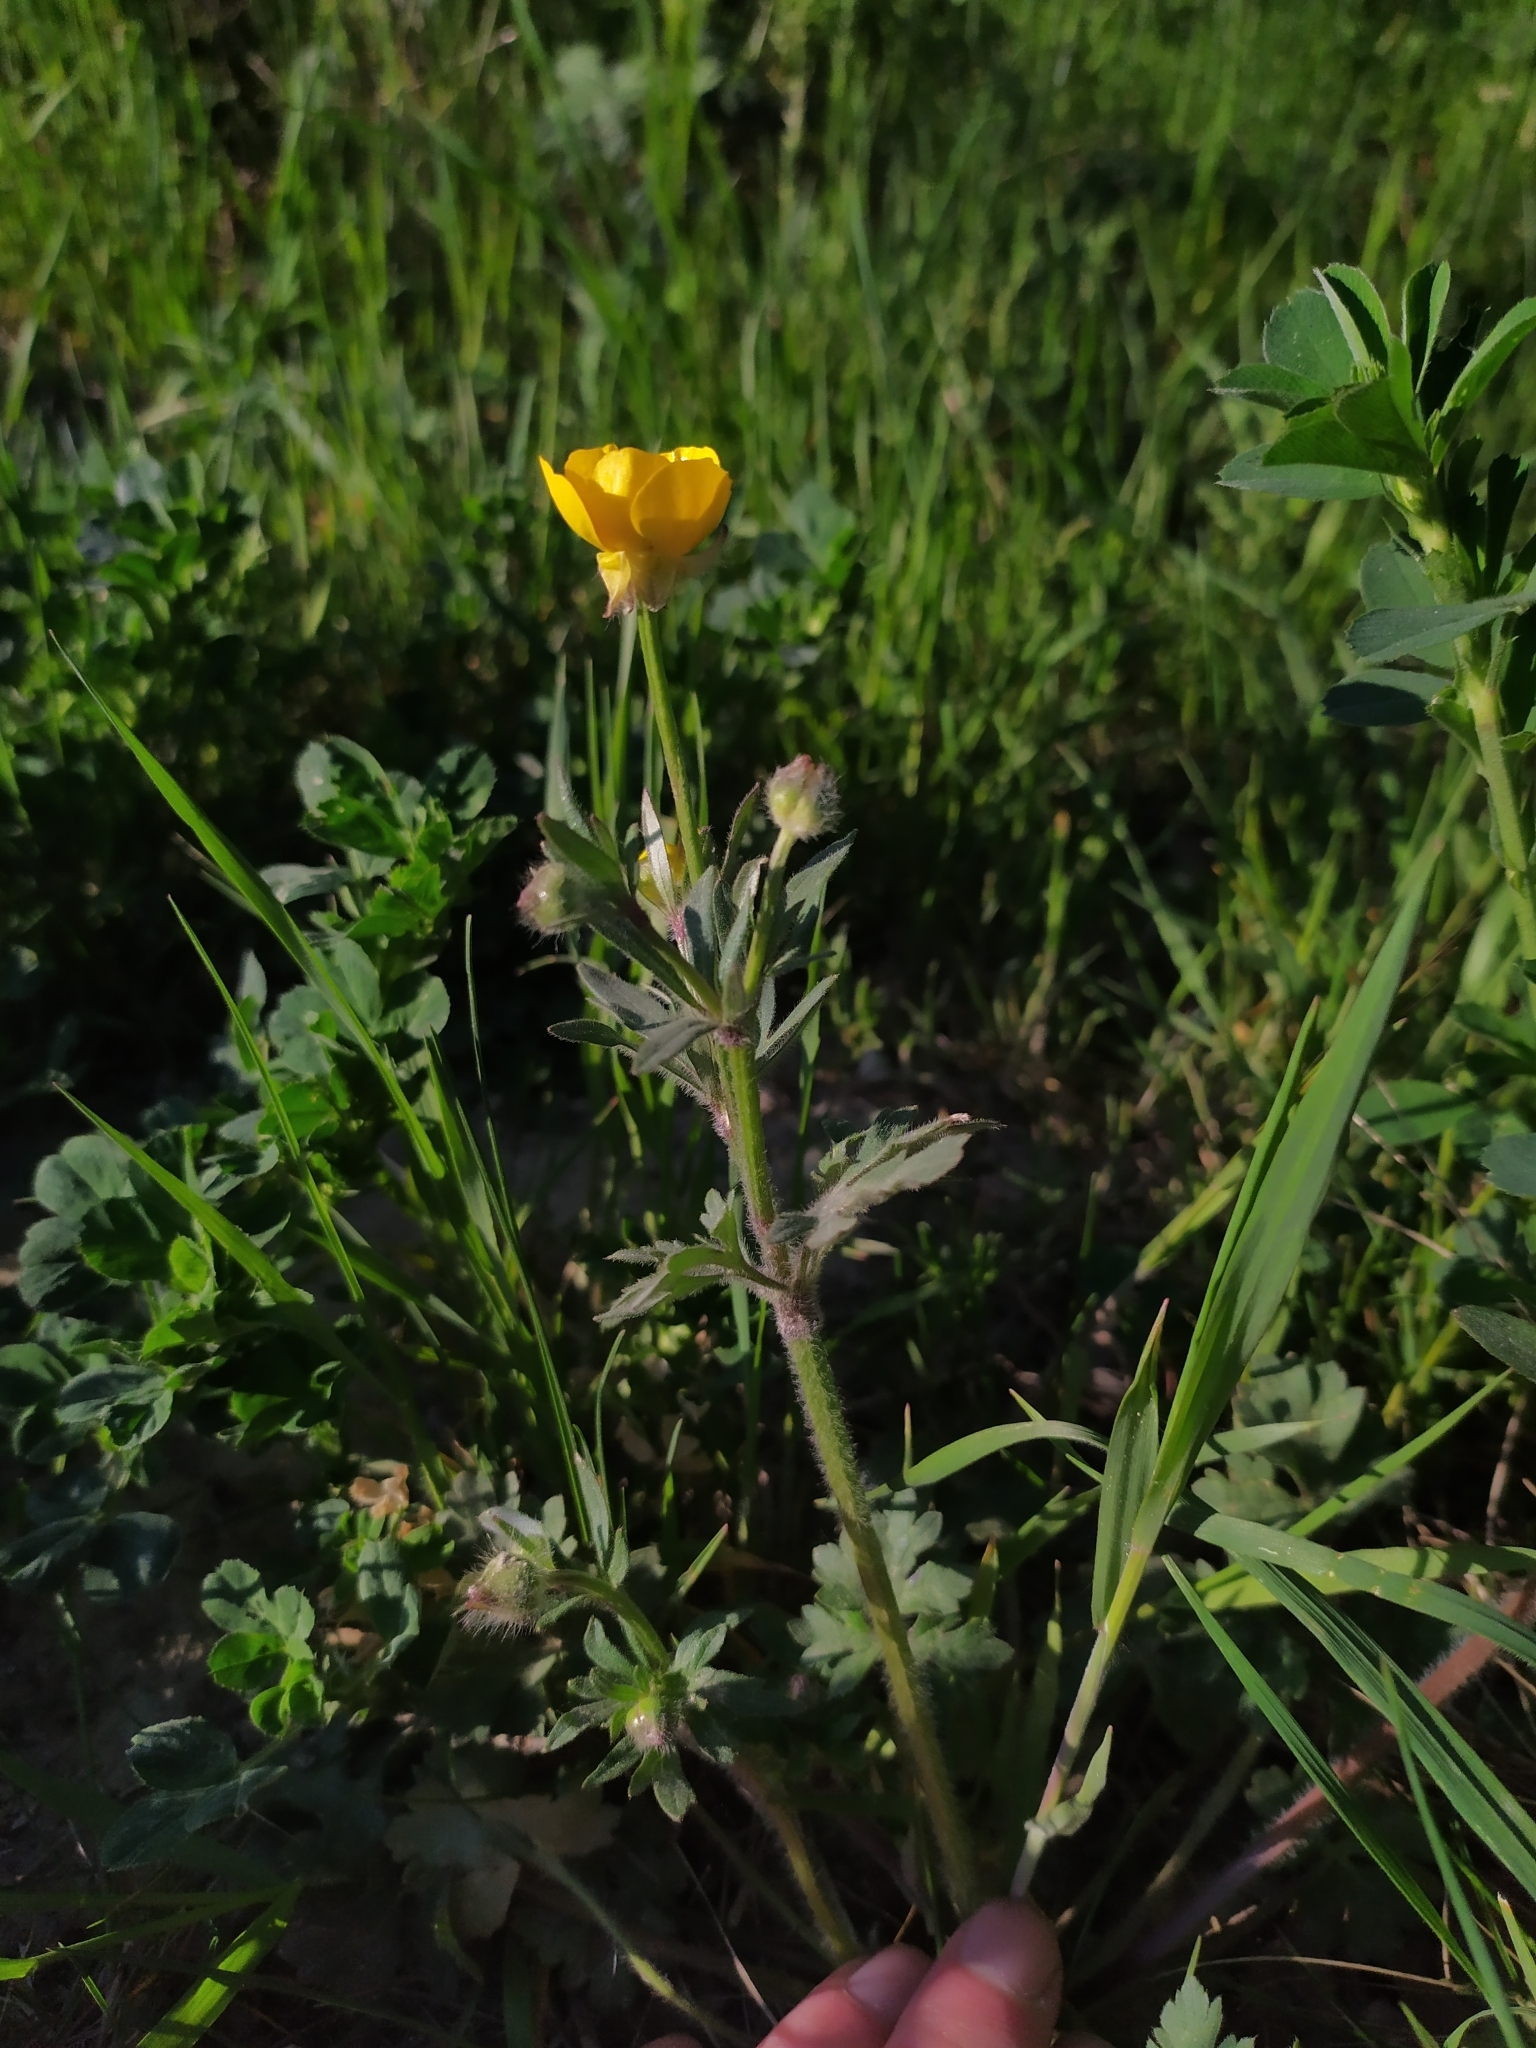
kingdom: Plantae
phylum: Tracheophyta
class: Magnoliopsida
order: Ranunculales
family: Ranunculaceae
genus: Ranunculus
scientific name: Ranunculus bulbosus
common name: Bulbous buttercup
